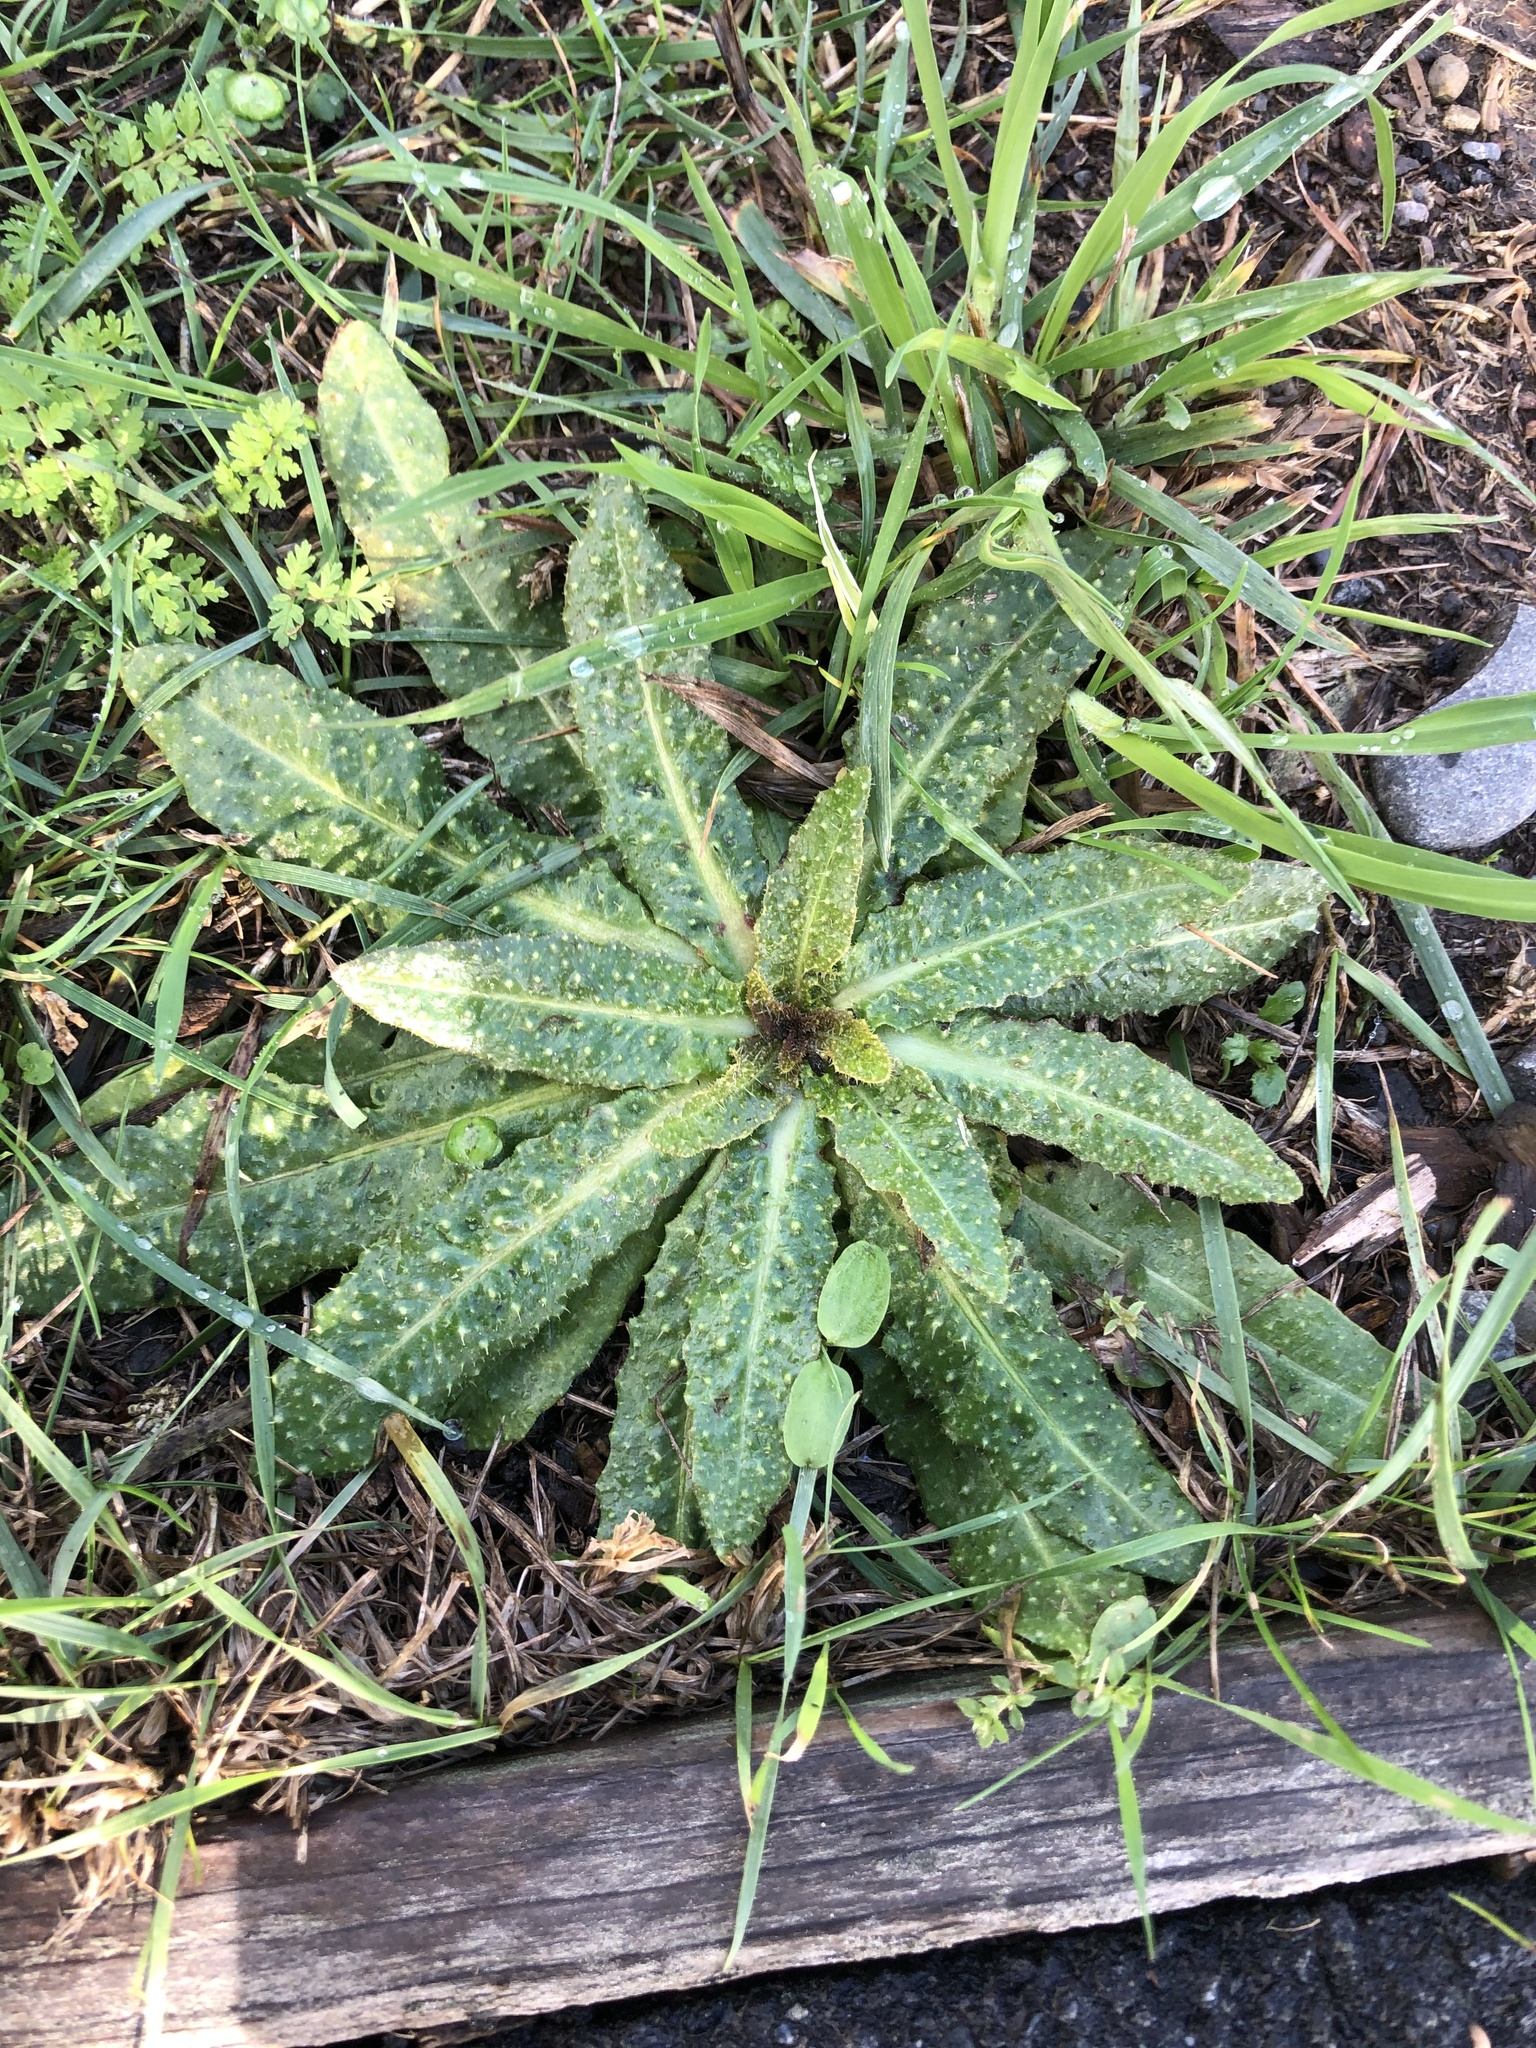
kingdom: Plantae
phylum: Tracheophyta
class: Magnoliopsida
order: Asterales
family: Asteraceae
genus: Helminthotheca
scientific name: Helminthotheca echioides
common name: Ox-tongue
